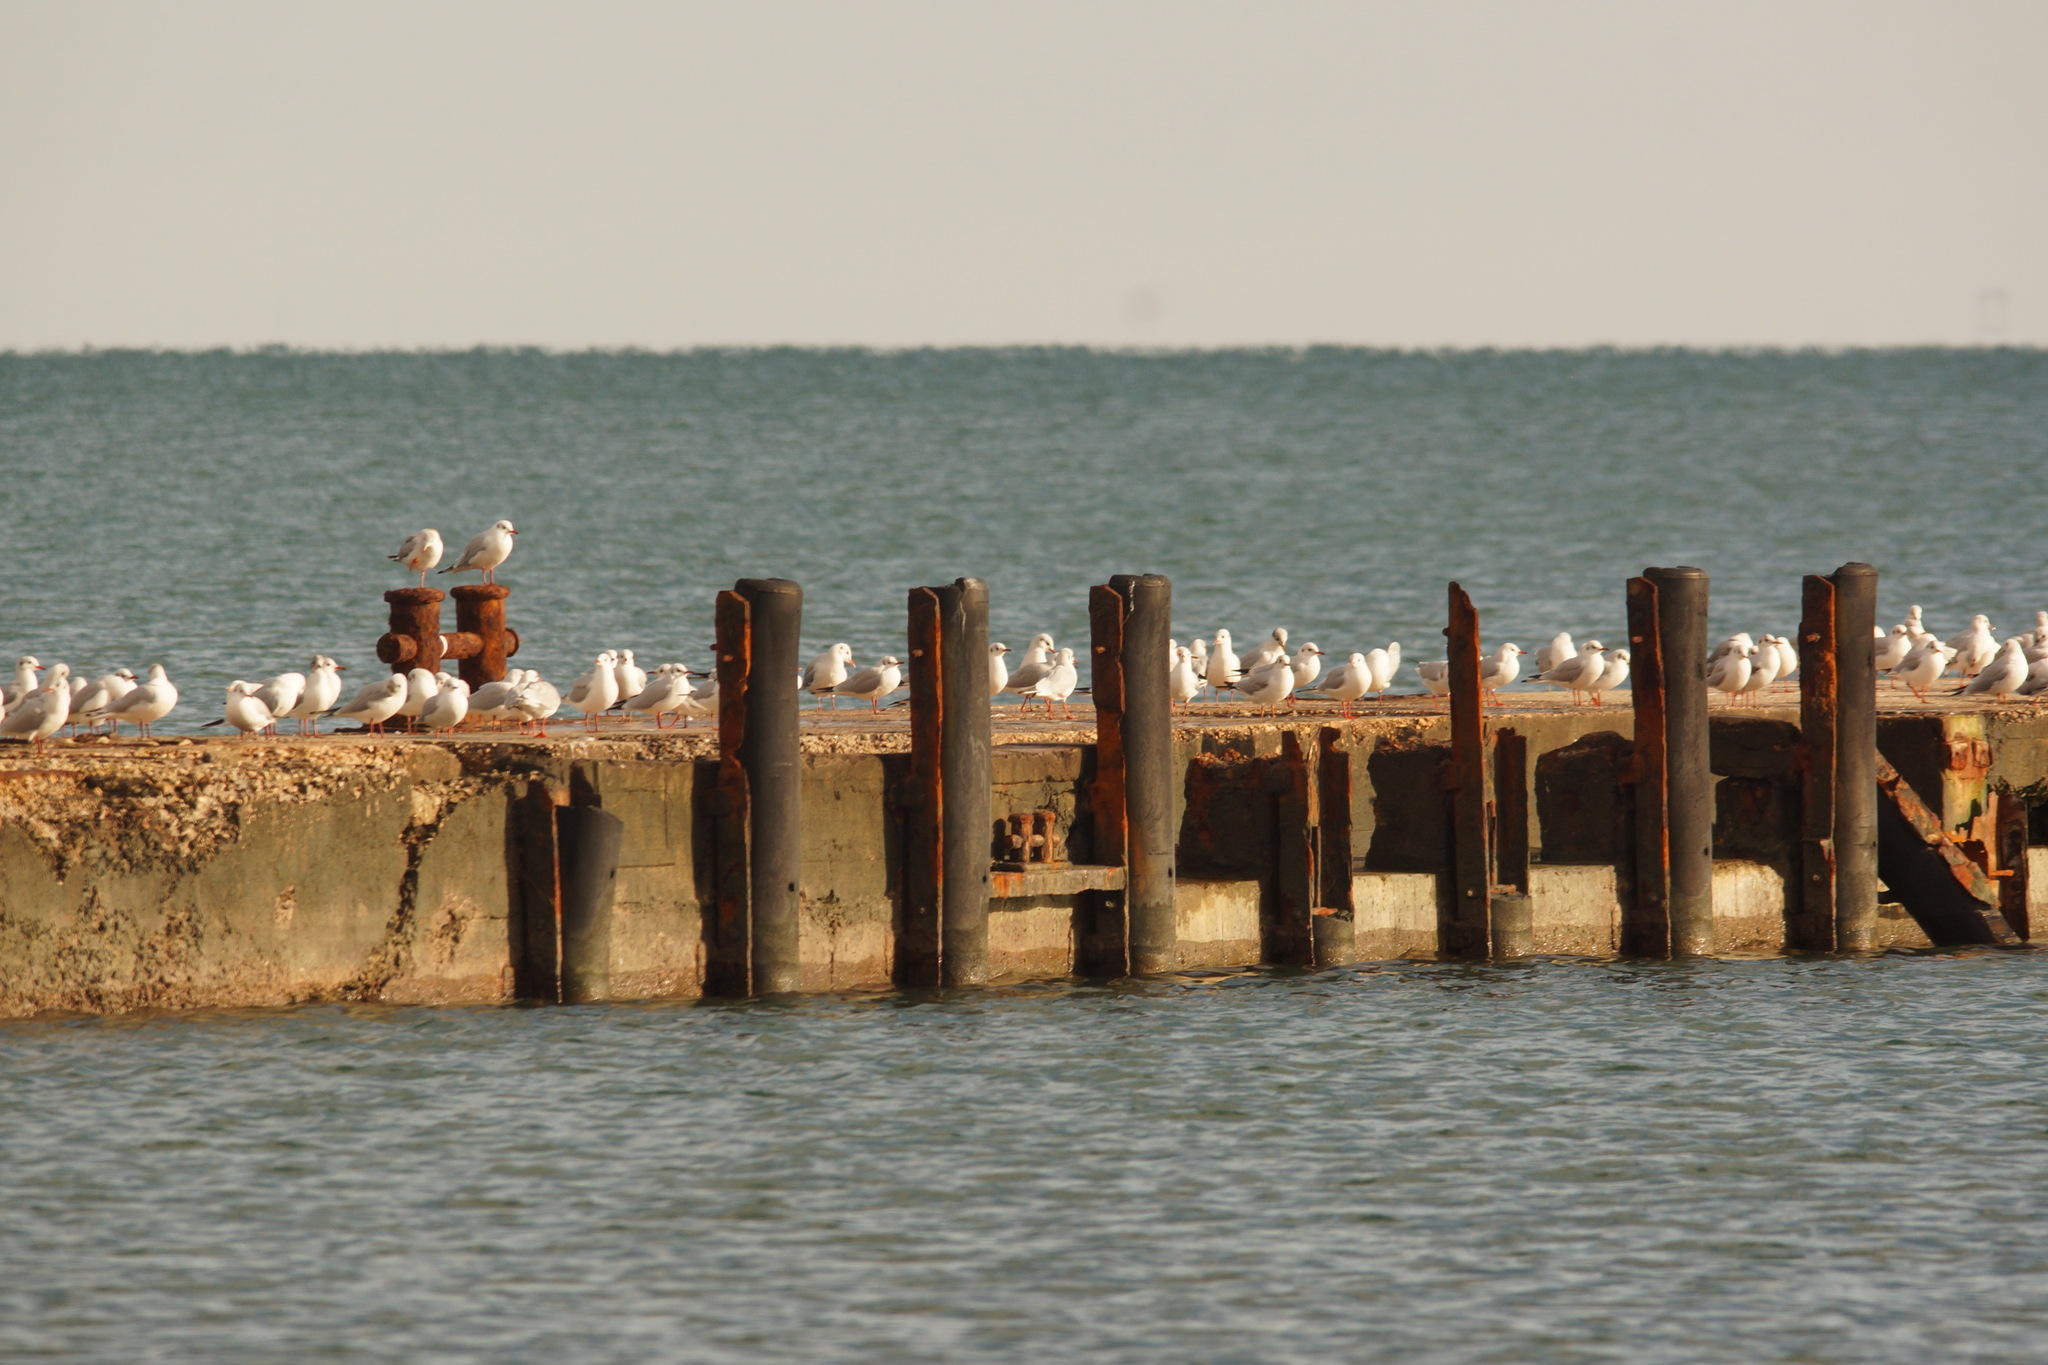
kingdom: Animalia
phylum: Chordata
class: Aves
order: Charadriiformes
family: Laridae
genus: Chroicocephalus
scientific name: Chroicocephalus ridibundus
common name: Black-headed gull
